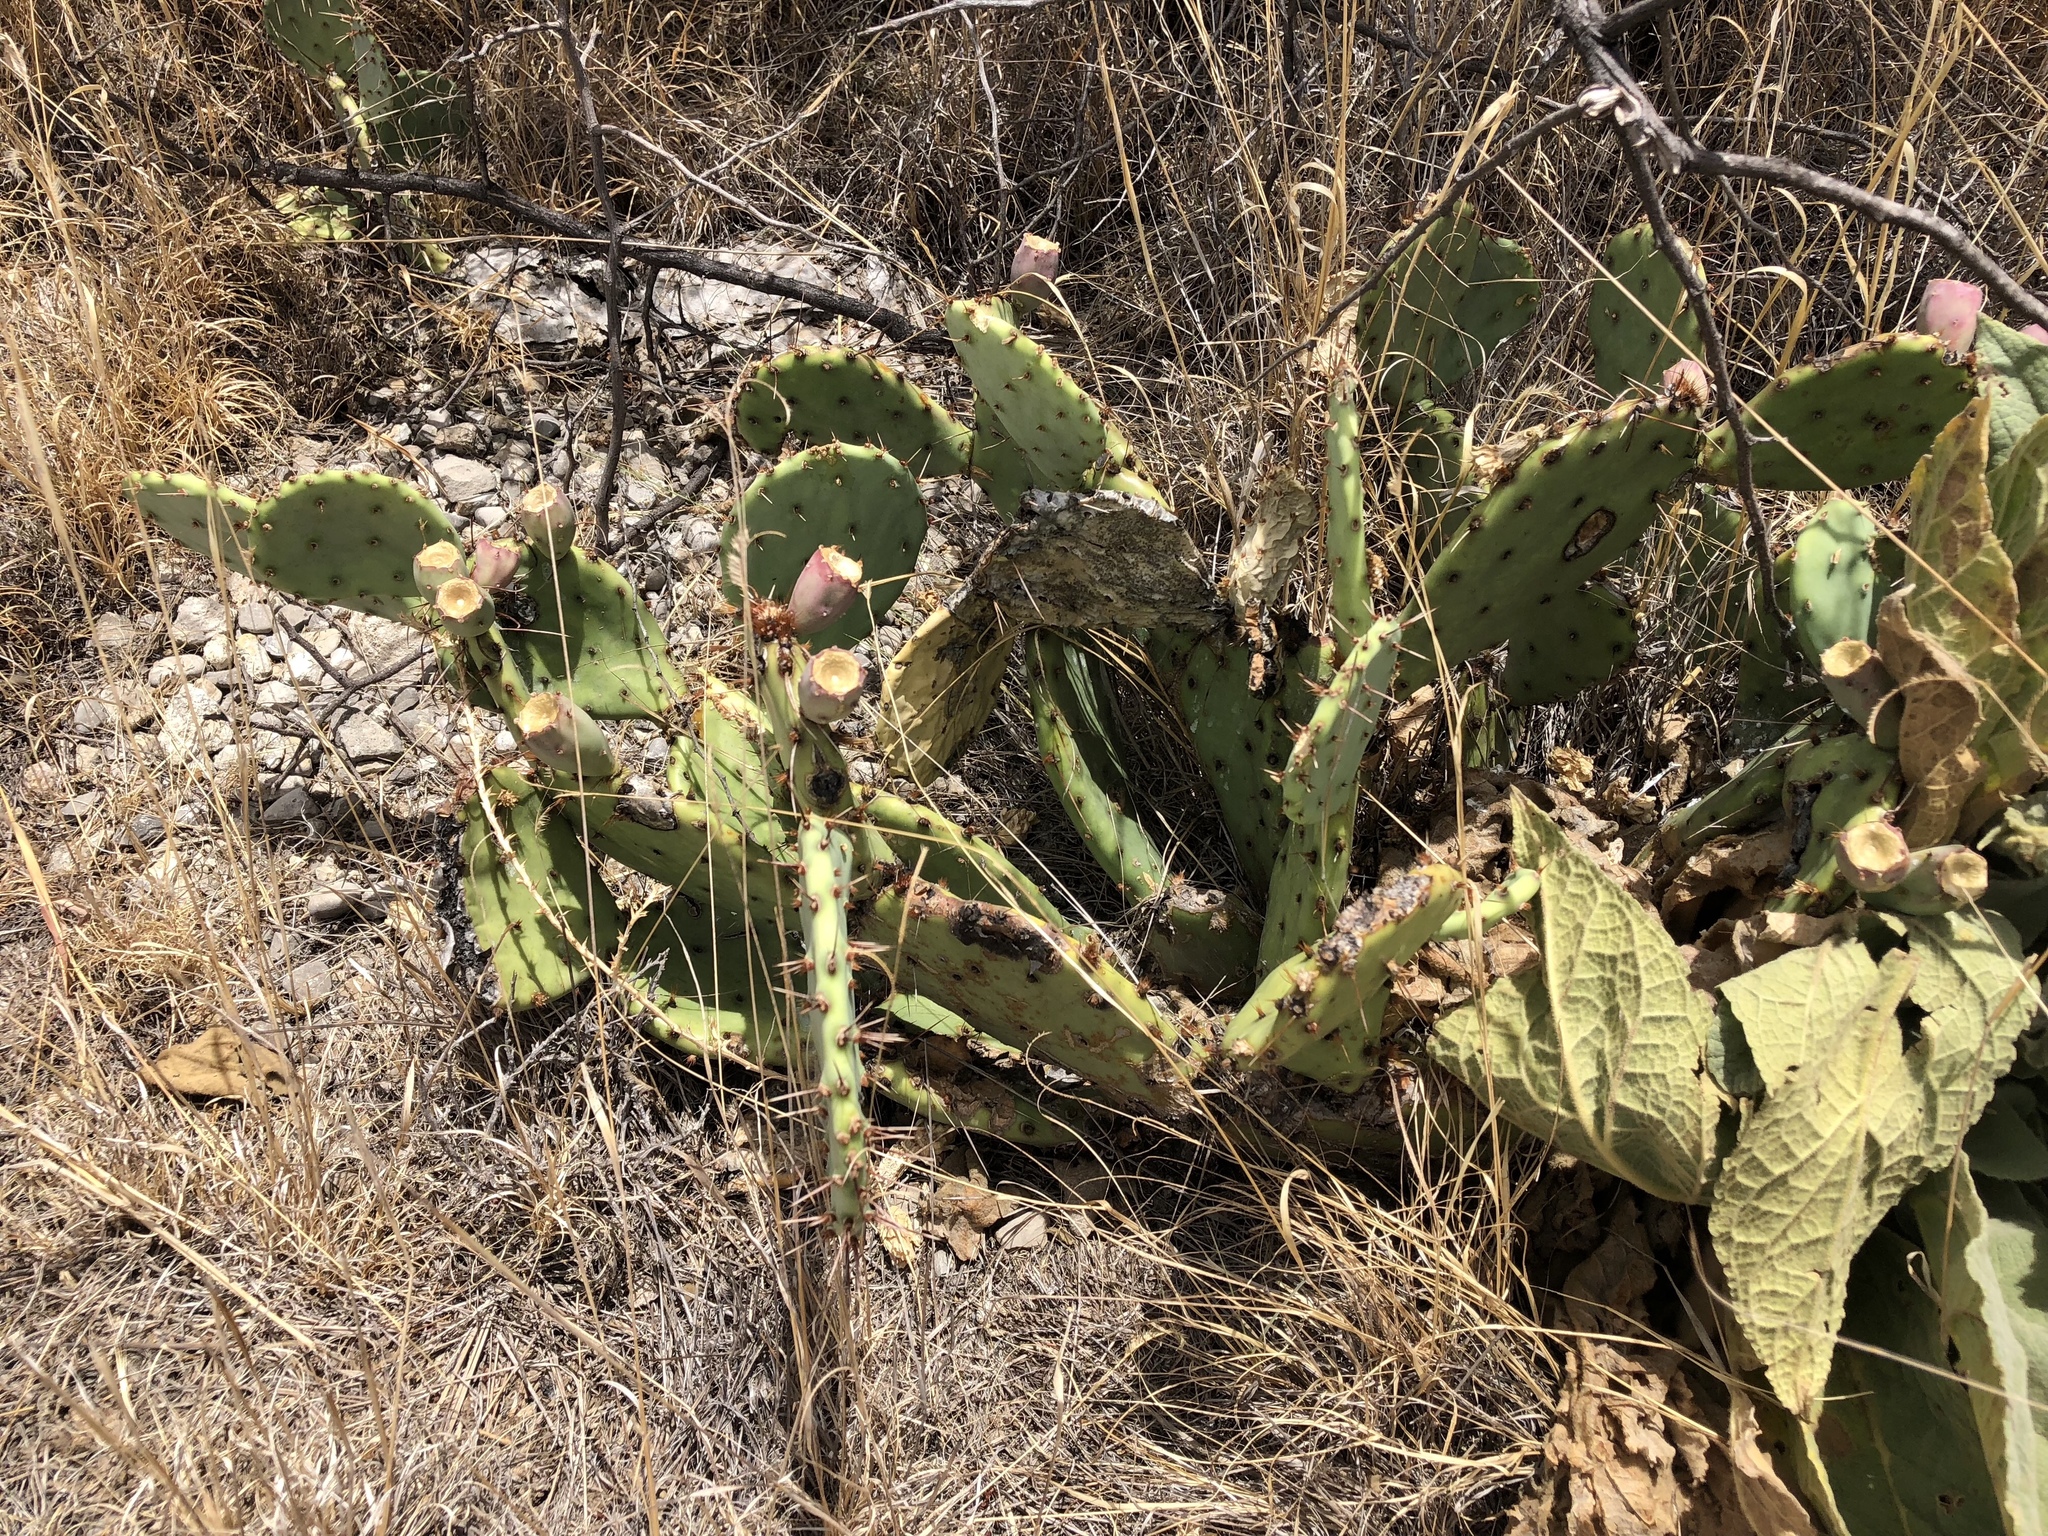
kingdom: Plantae
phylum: Tracheophyta
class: Magnoliopsida
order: Caryophyllales
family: Cactaceae
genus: Opuntia
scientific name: Opuntia phaeacantha
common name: New mexico prickly-pear
